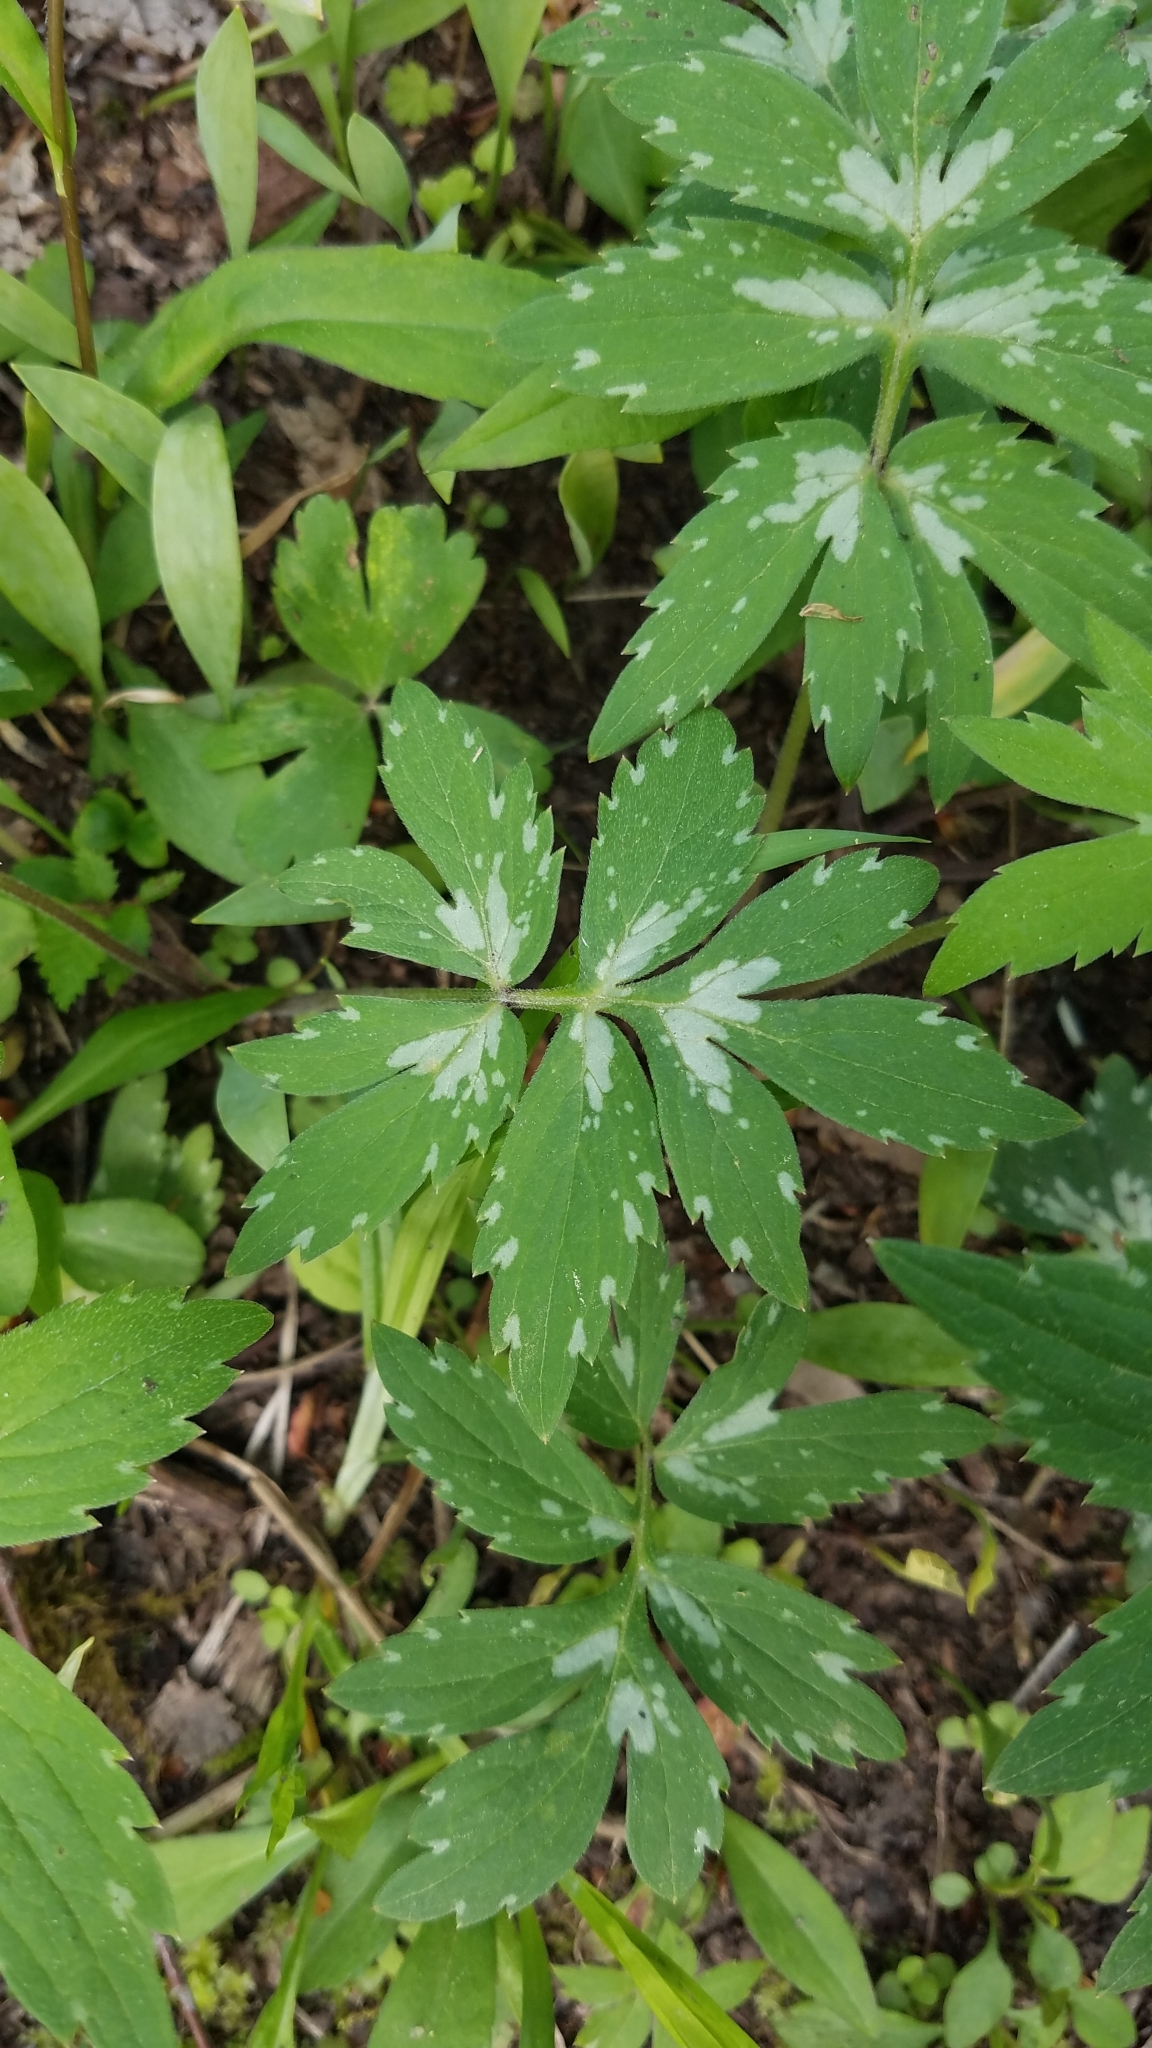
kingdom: Plantae
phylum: Tracheophyta
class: Magnoliopsida
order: Boraginales
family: Hydrophyllaceae
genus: Hydrophyllum
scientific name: Hydrophyllum virginianum
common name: Virginia waterleaf
